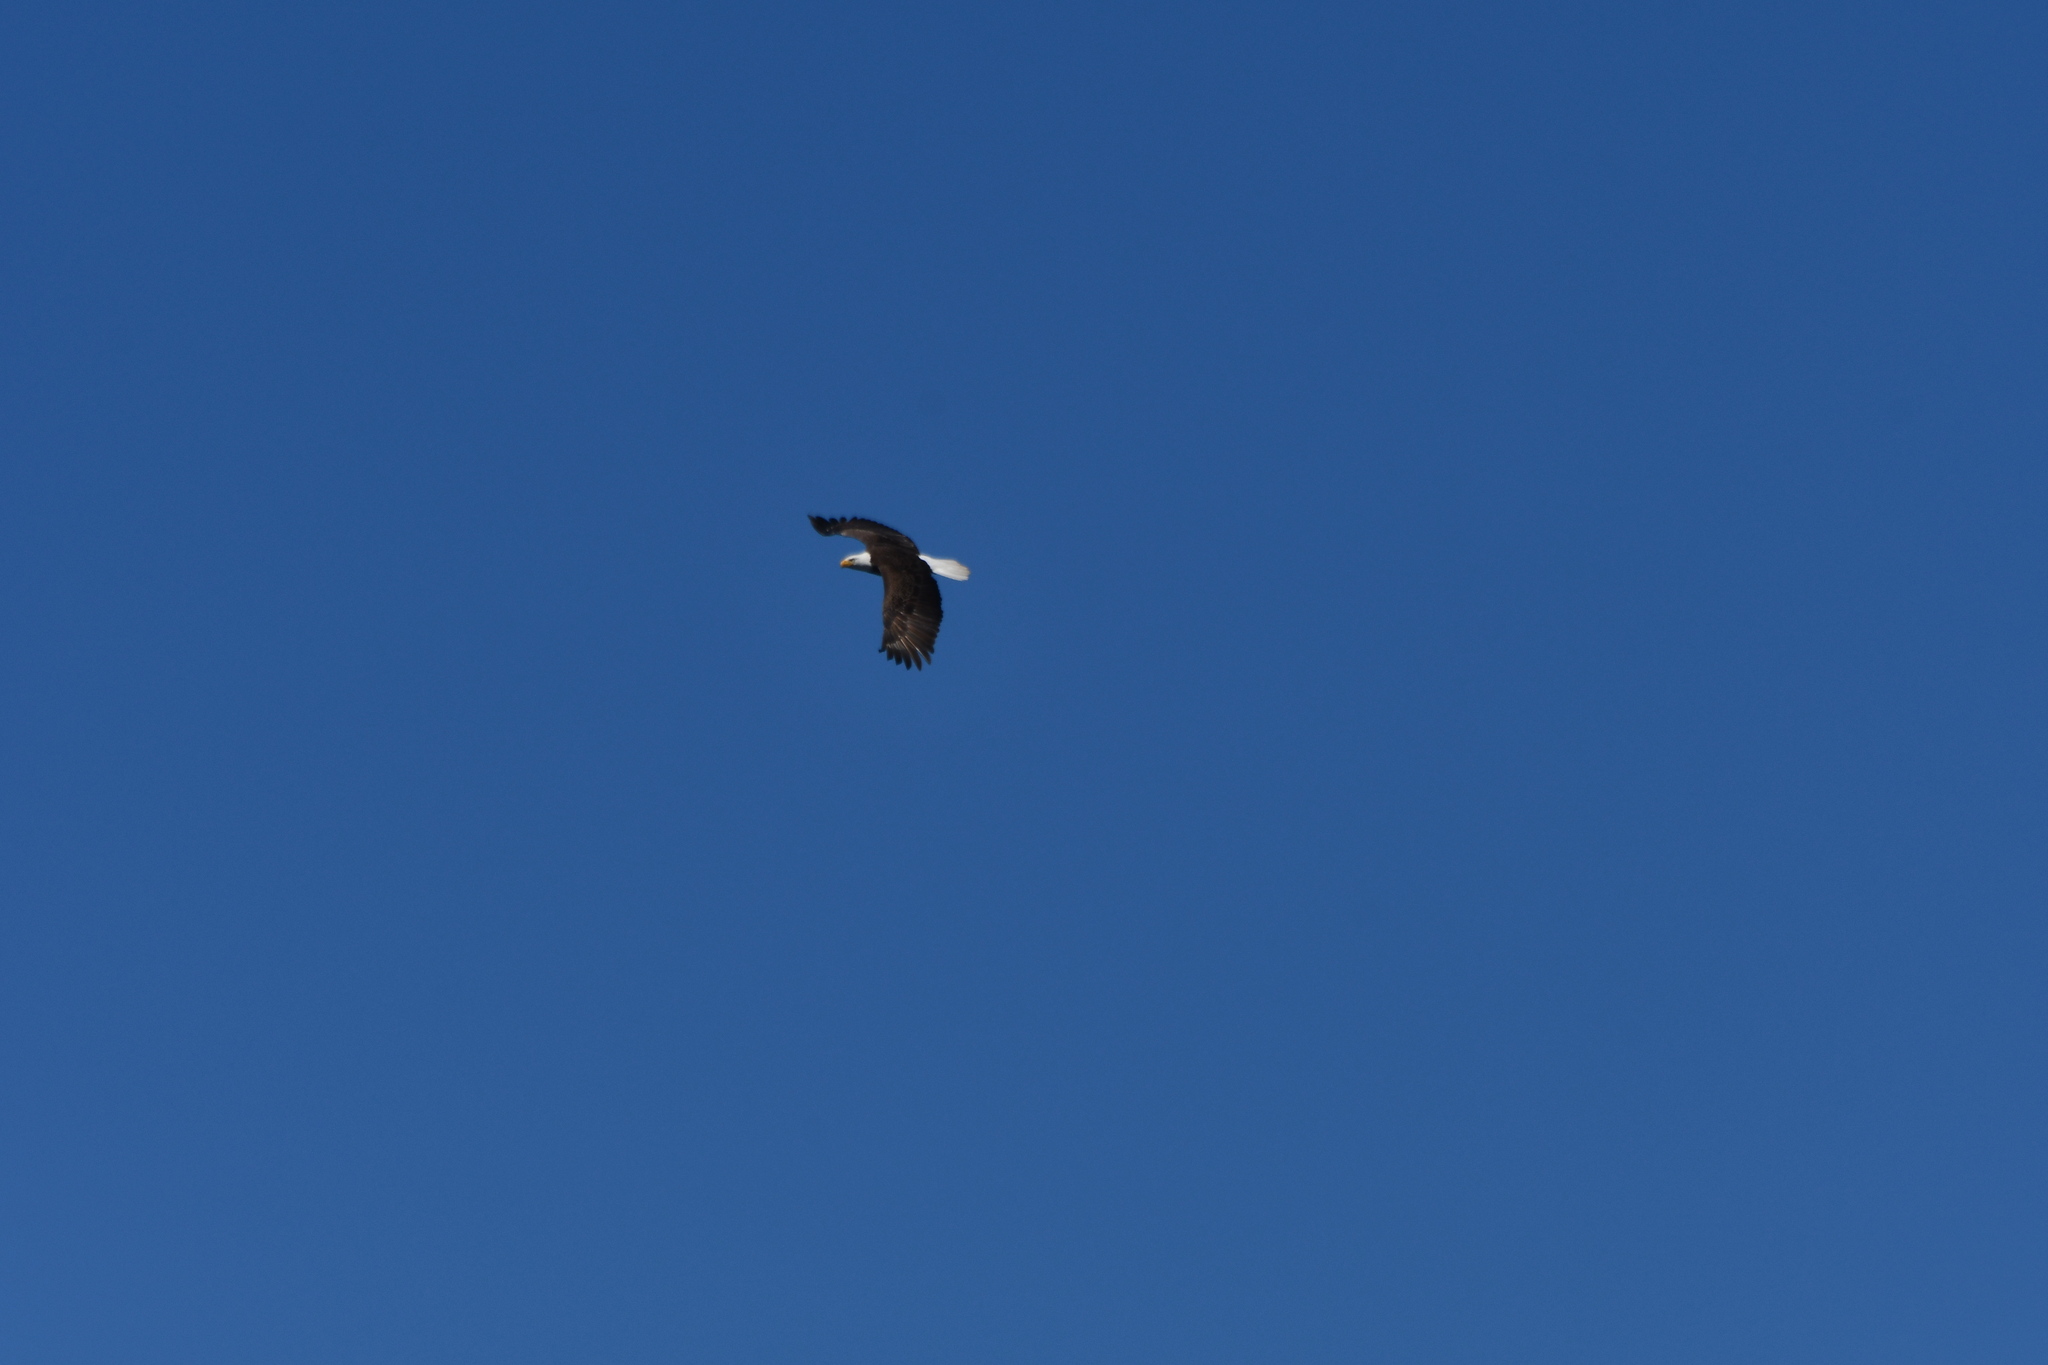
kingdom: Animalia
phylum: Chordata
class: Aves
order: Accipitriformes
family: Accipitridae
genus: Haliaeetus
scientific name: Haliaeetus leucocephalus
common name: Bald eagle
